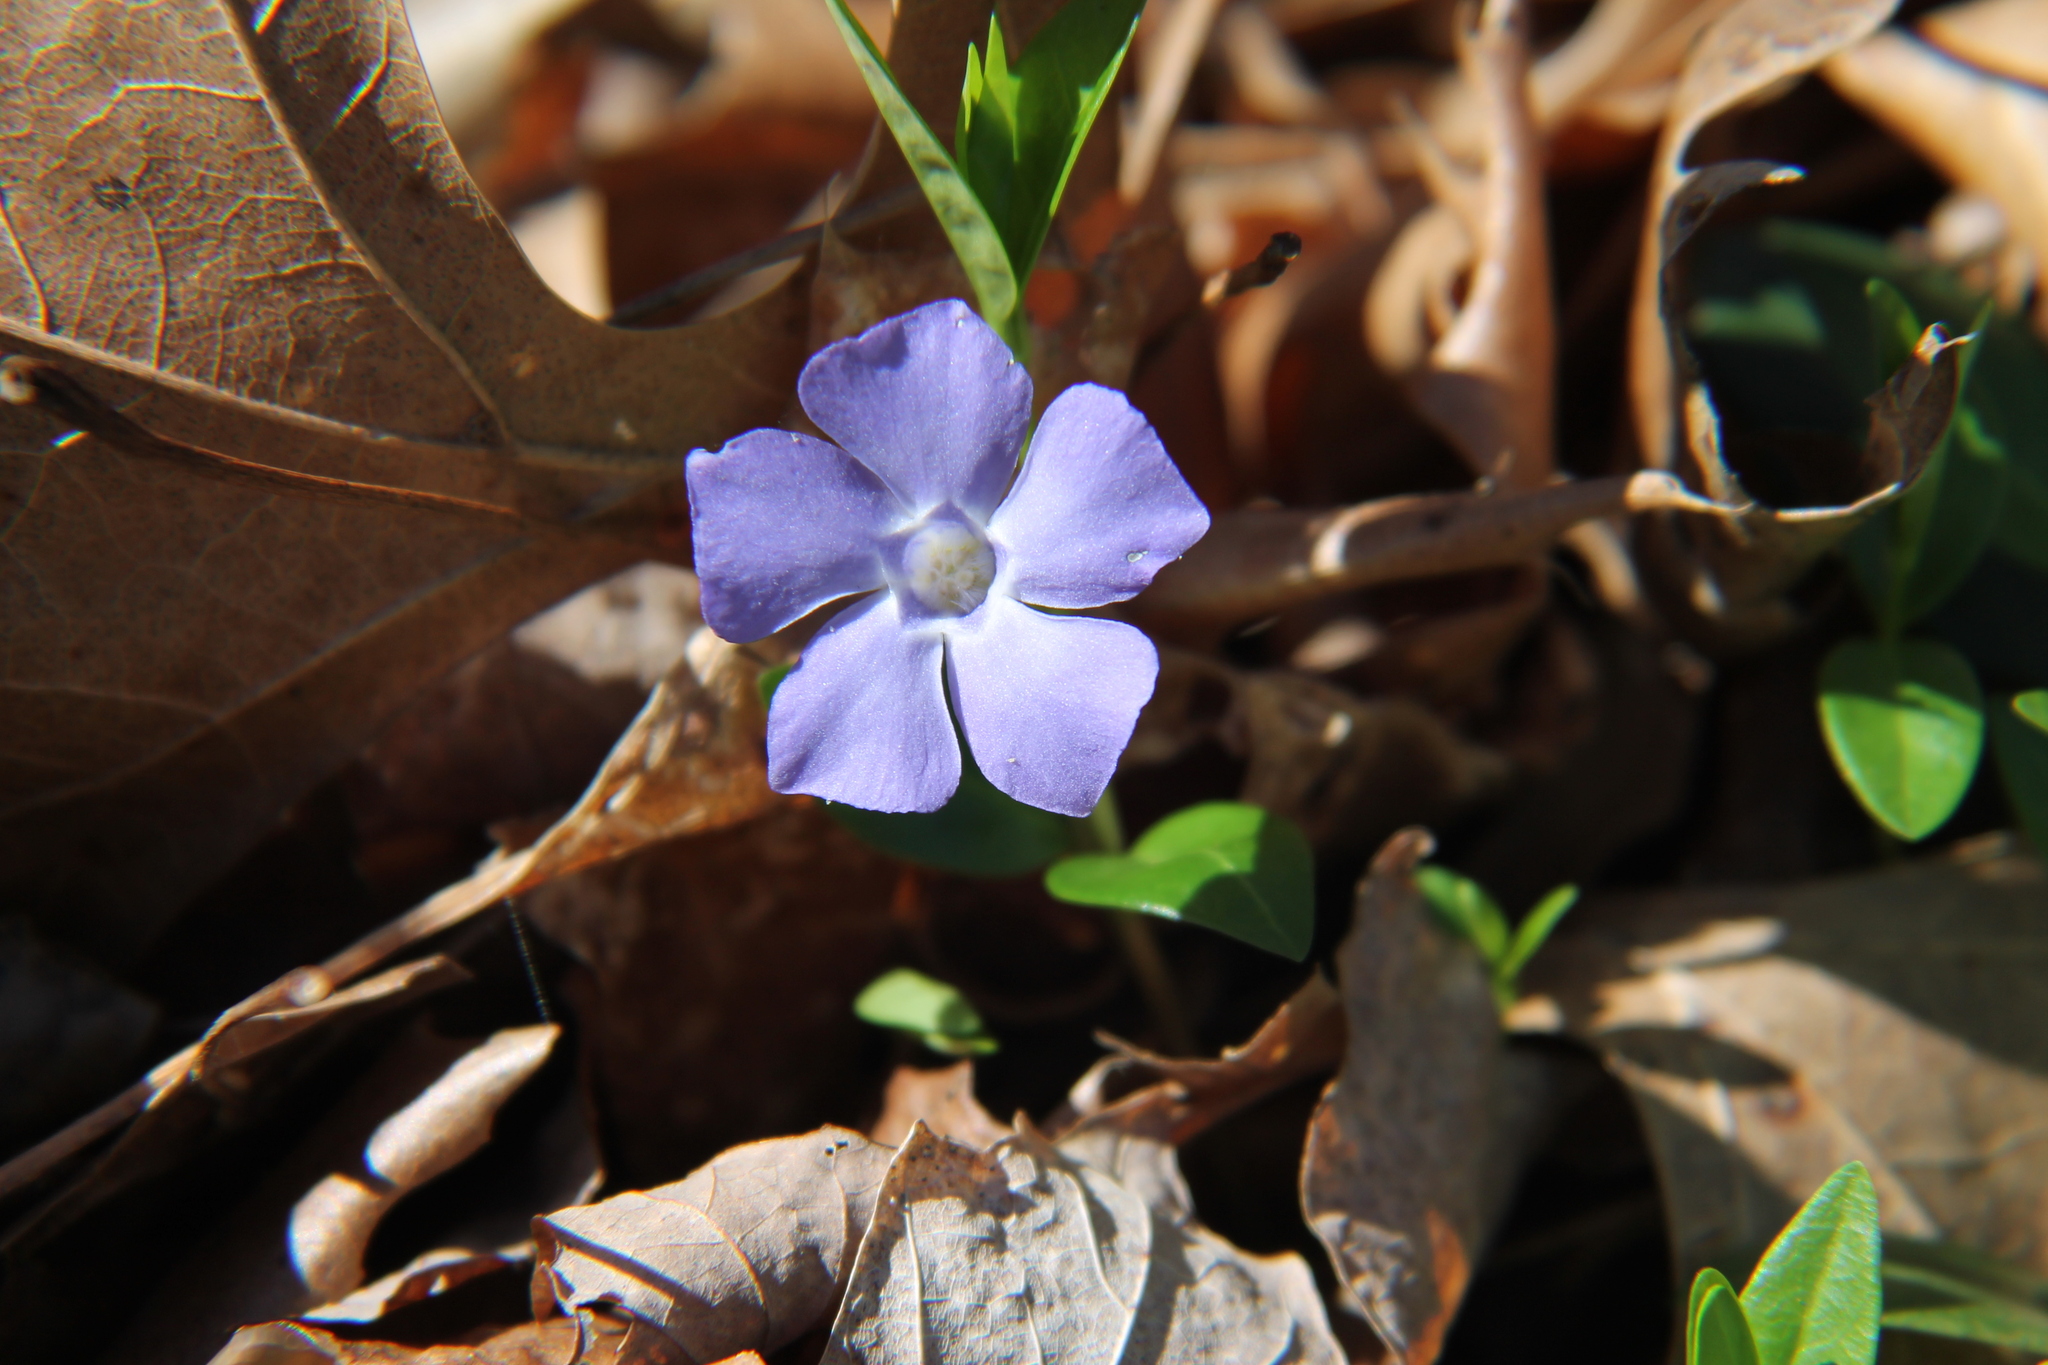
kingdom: Plantae
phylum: Tracheophyta
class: Magnoliopsida
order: Gentianales
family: Apocynaceae
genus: Vinca
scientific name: Vinca minor
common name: Lesser periwinkle
